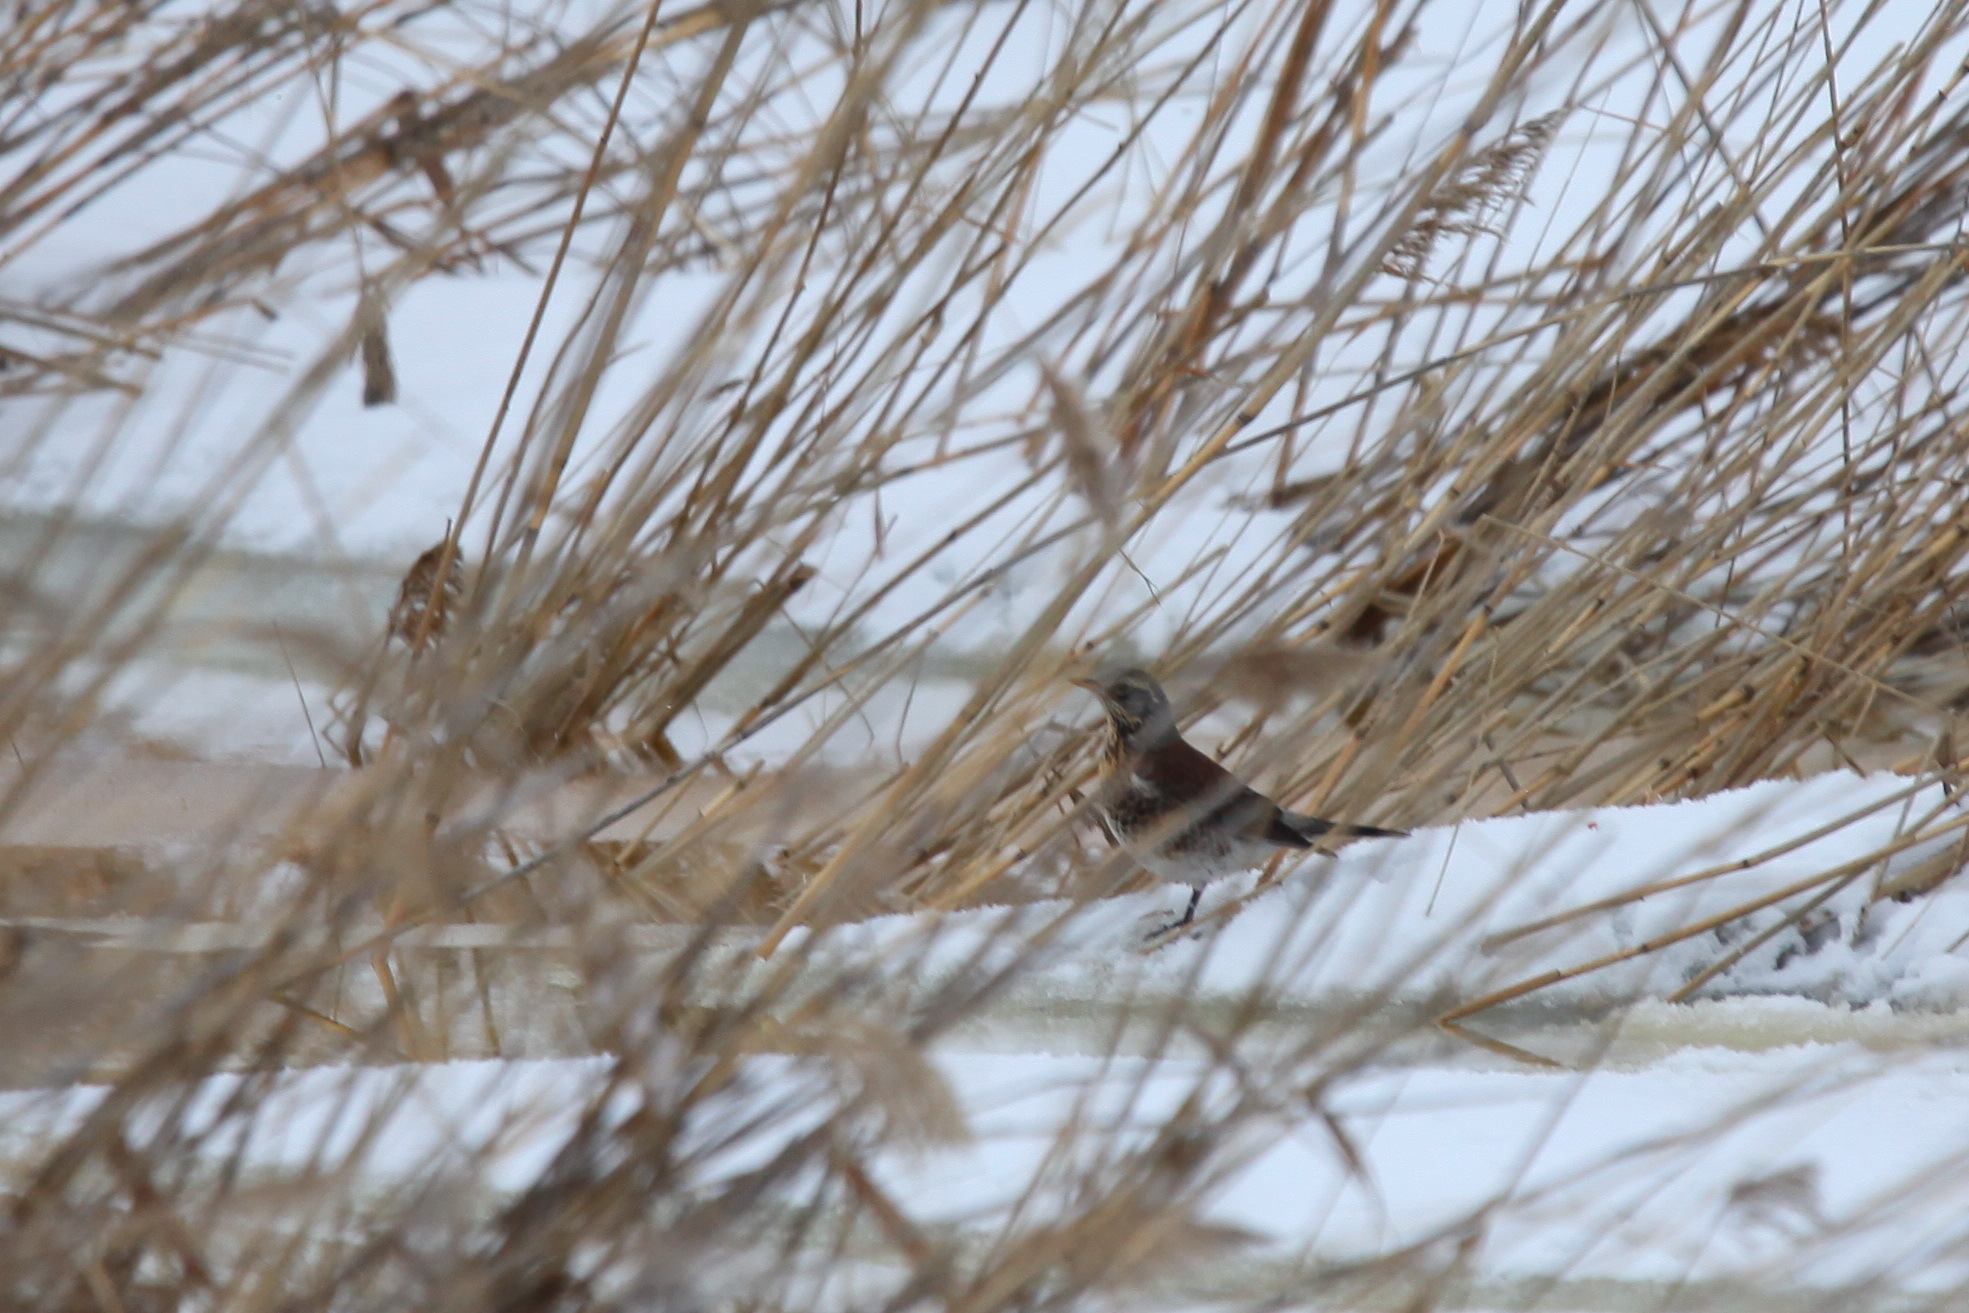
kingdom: Animalia
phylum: Chordata
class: Aves
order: Passeriformes
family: Turdidae
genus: Turdus
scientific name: Turdus pilaris
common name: Fieldfare
